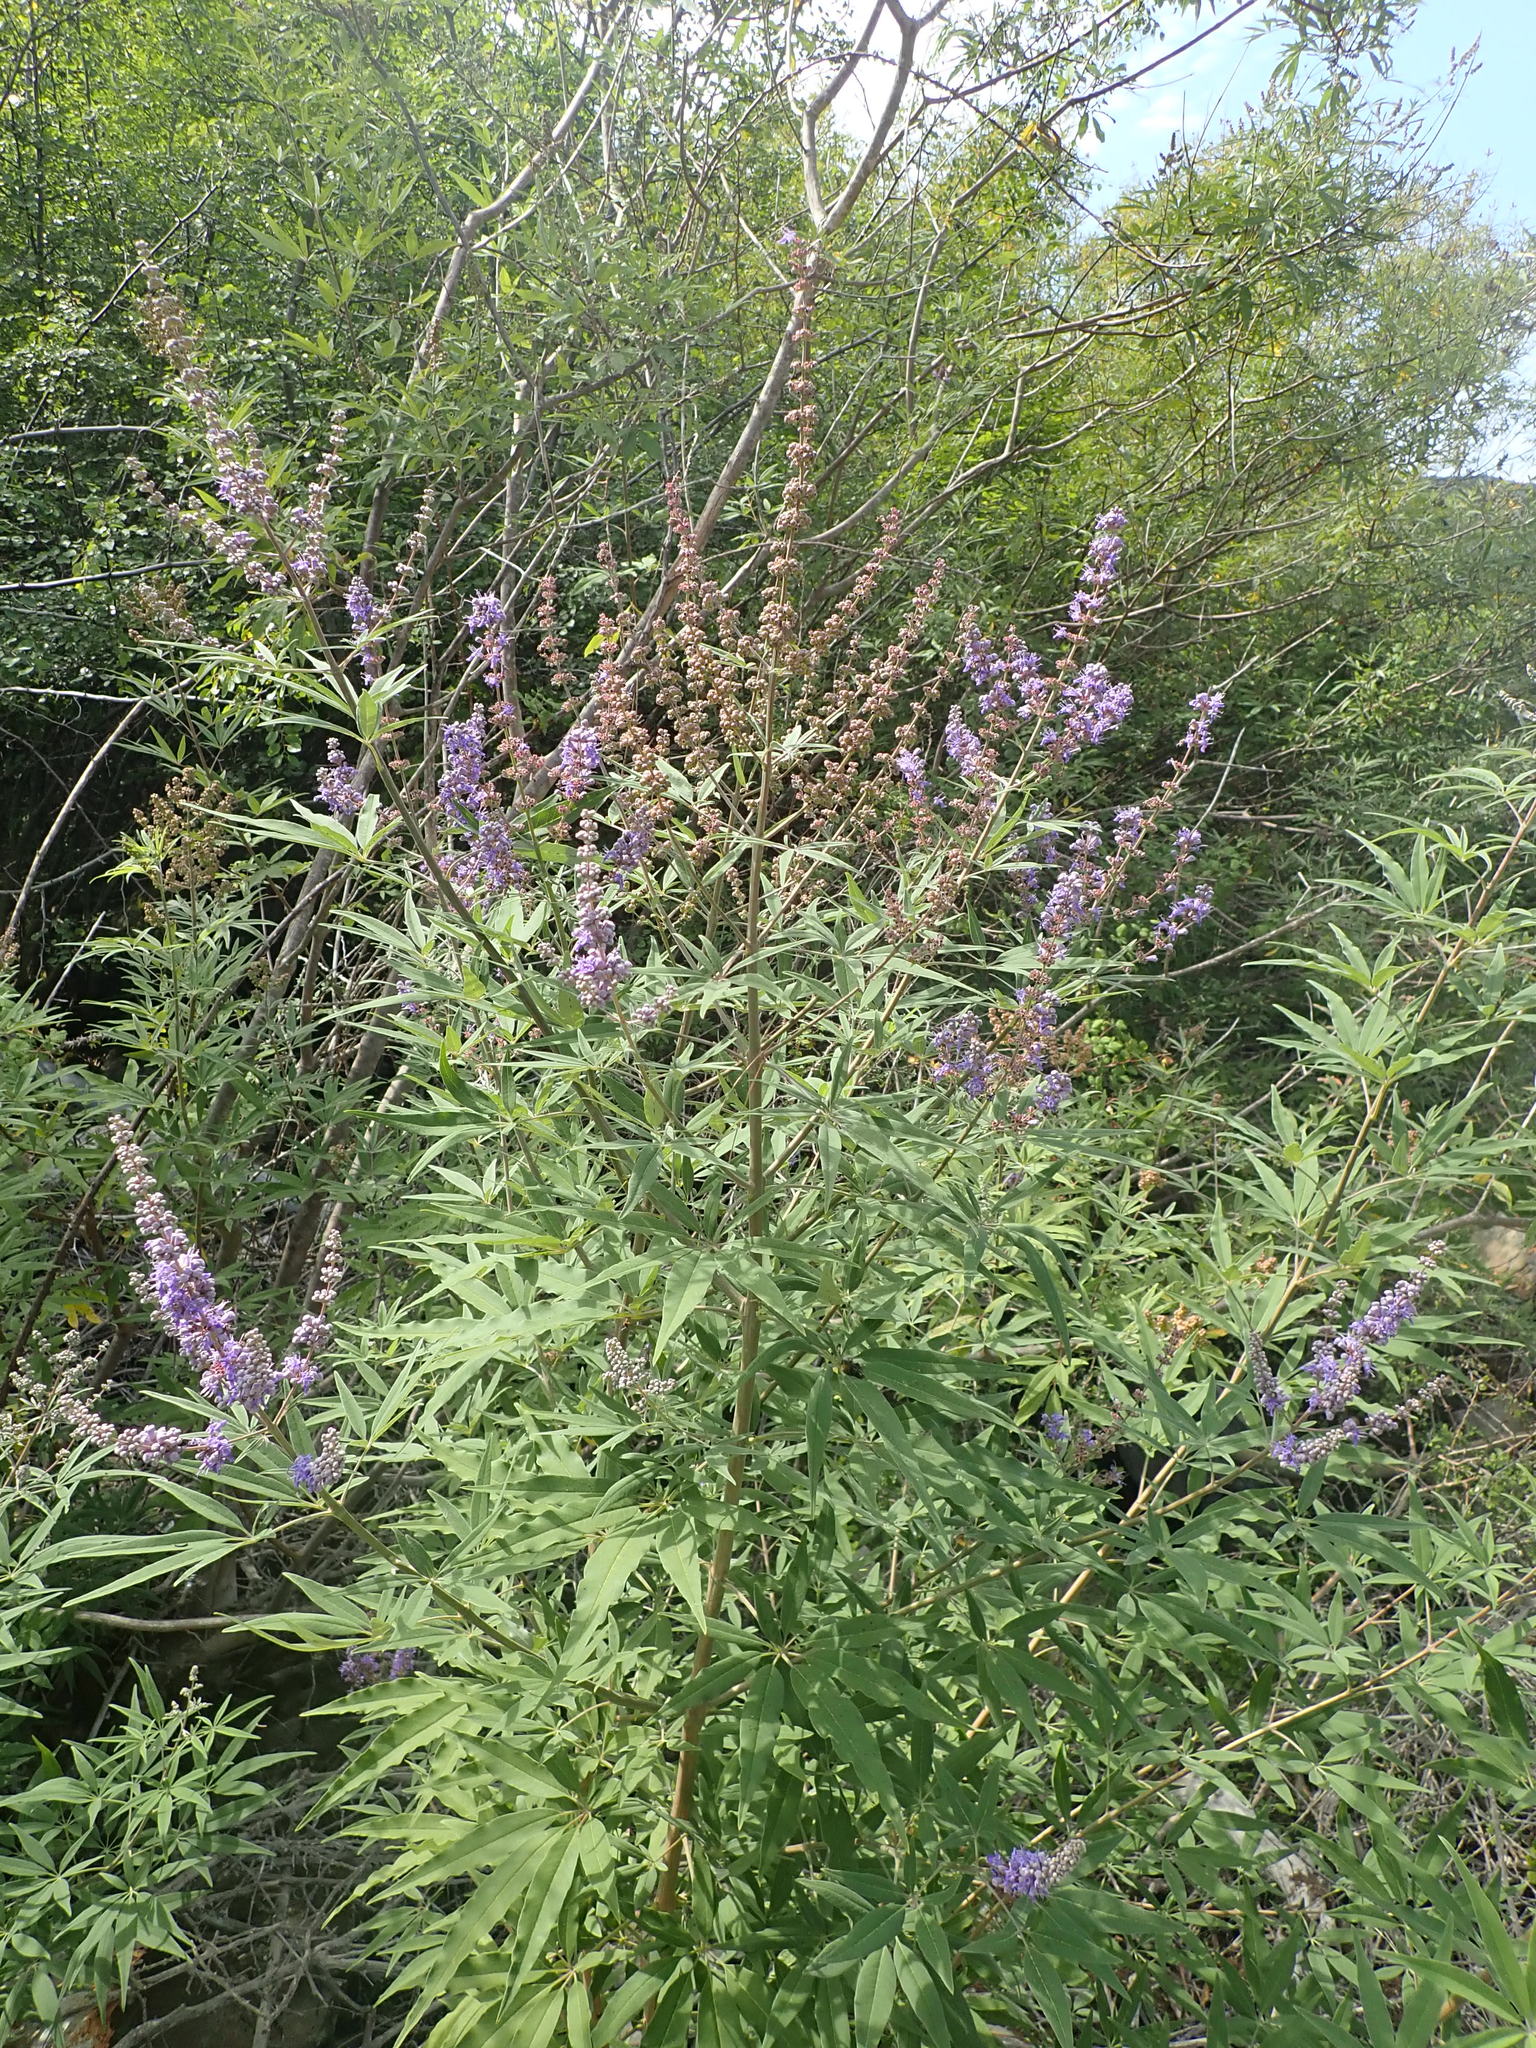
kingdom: Plantae
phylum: Tracheophyta
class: Magnoliopsida
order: Lamiales
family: Lamiaceae
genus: Vitex
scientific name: Vitex agnus-castus
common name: Chasteberry
